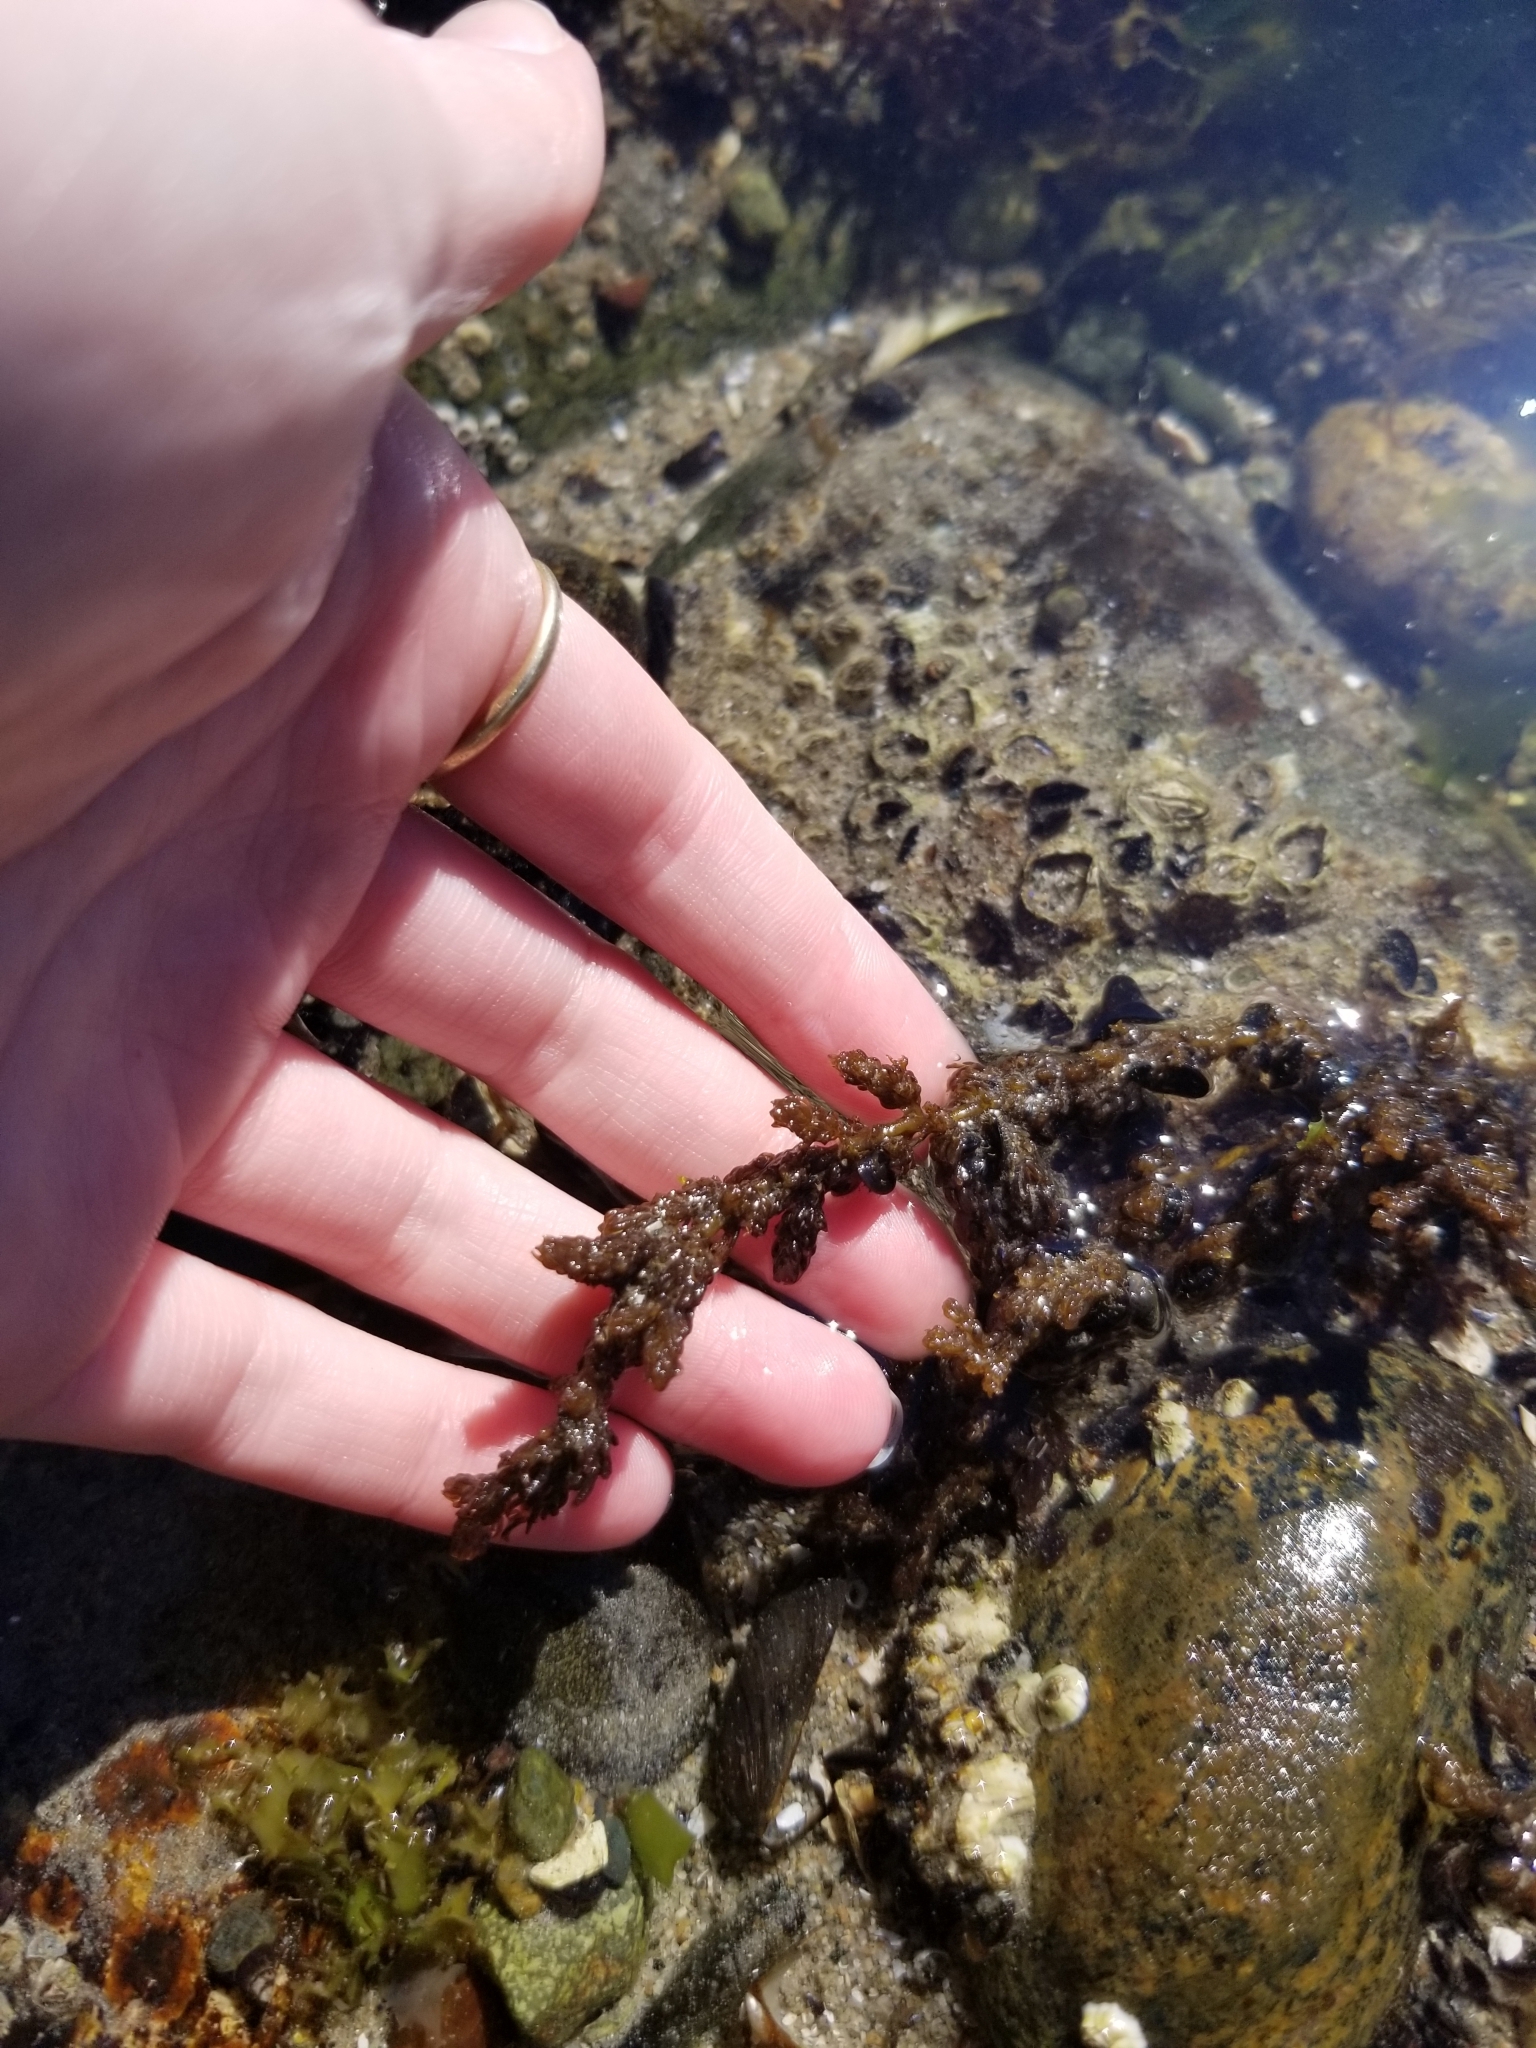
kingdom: Plantae
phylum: Rhodophyta
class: Florideophyceae
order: Ceramiales
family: Rhodomelaceae
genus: Neorhodomela
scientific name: Neorhodomela larix
